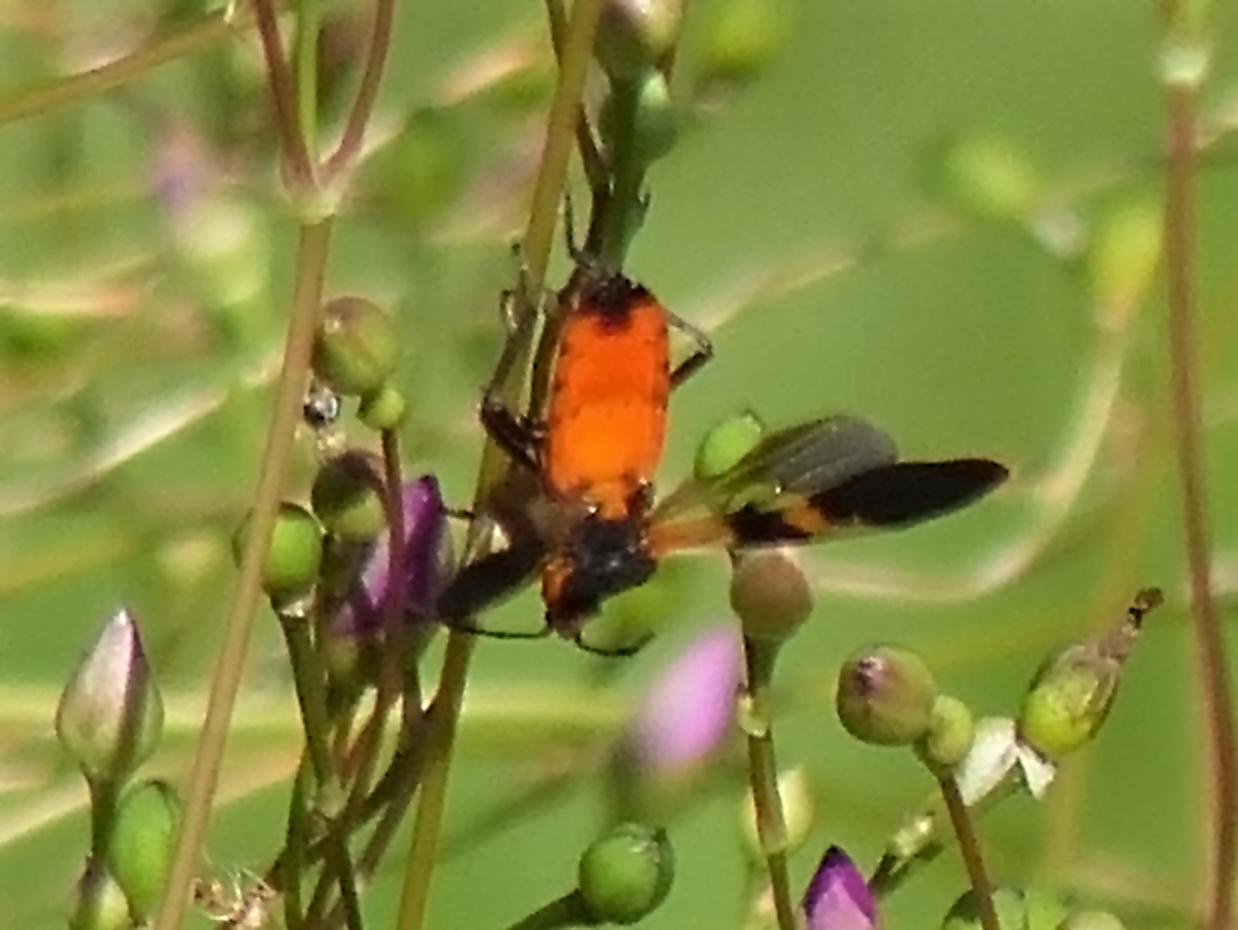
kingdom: Animalia
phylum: Arthropoda
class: Insecta
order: Hemiptera
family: Lygaeidae
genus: Oncopeltus
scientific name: Oncopeltus fasciatus
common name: Large milkweed bug
